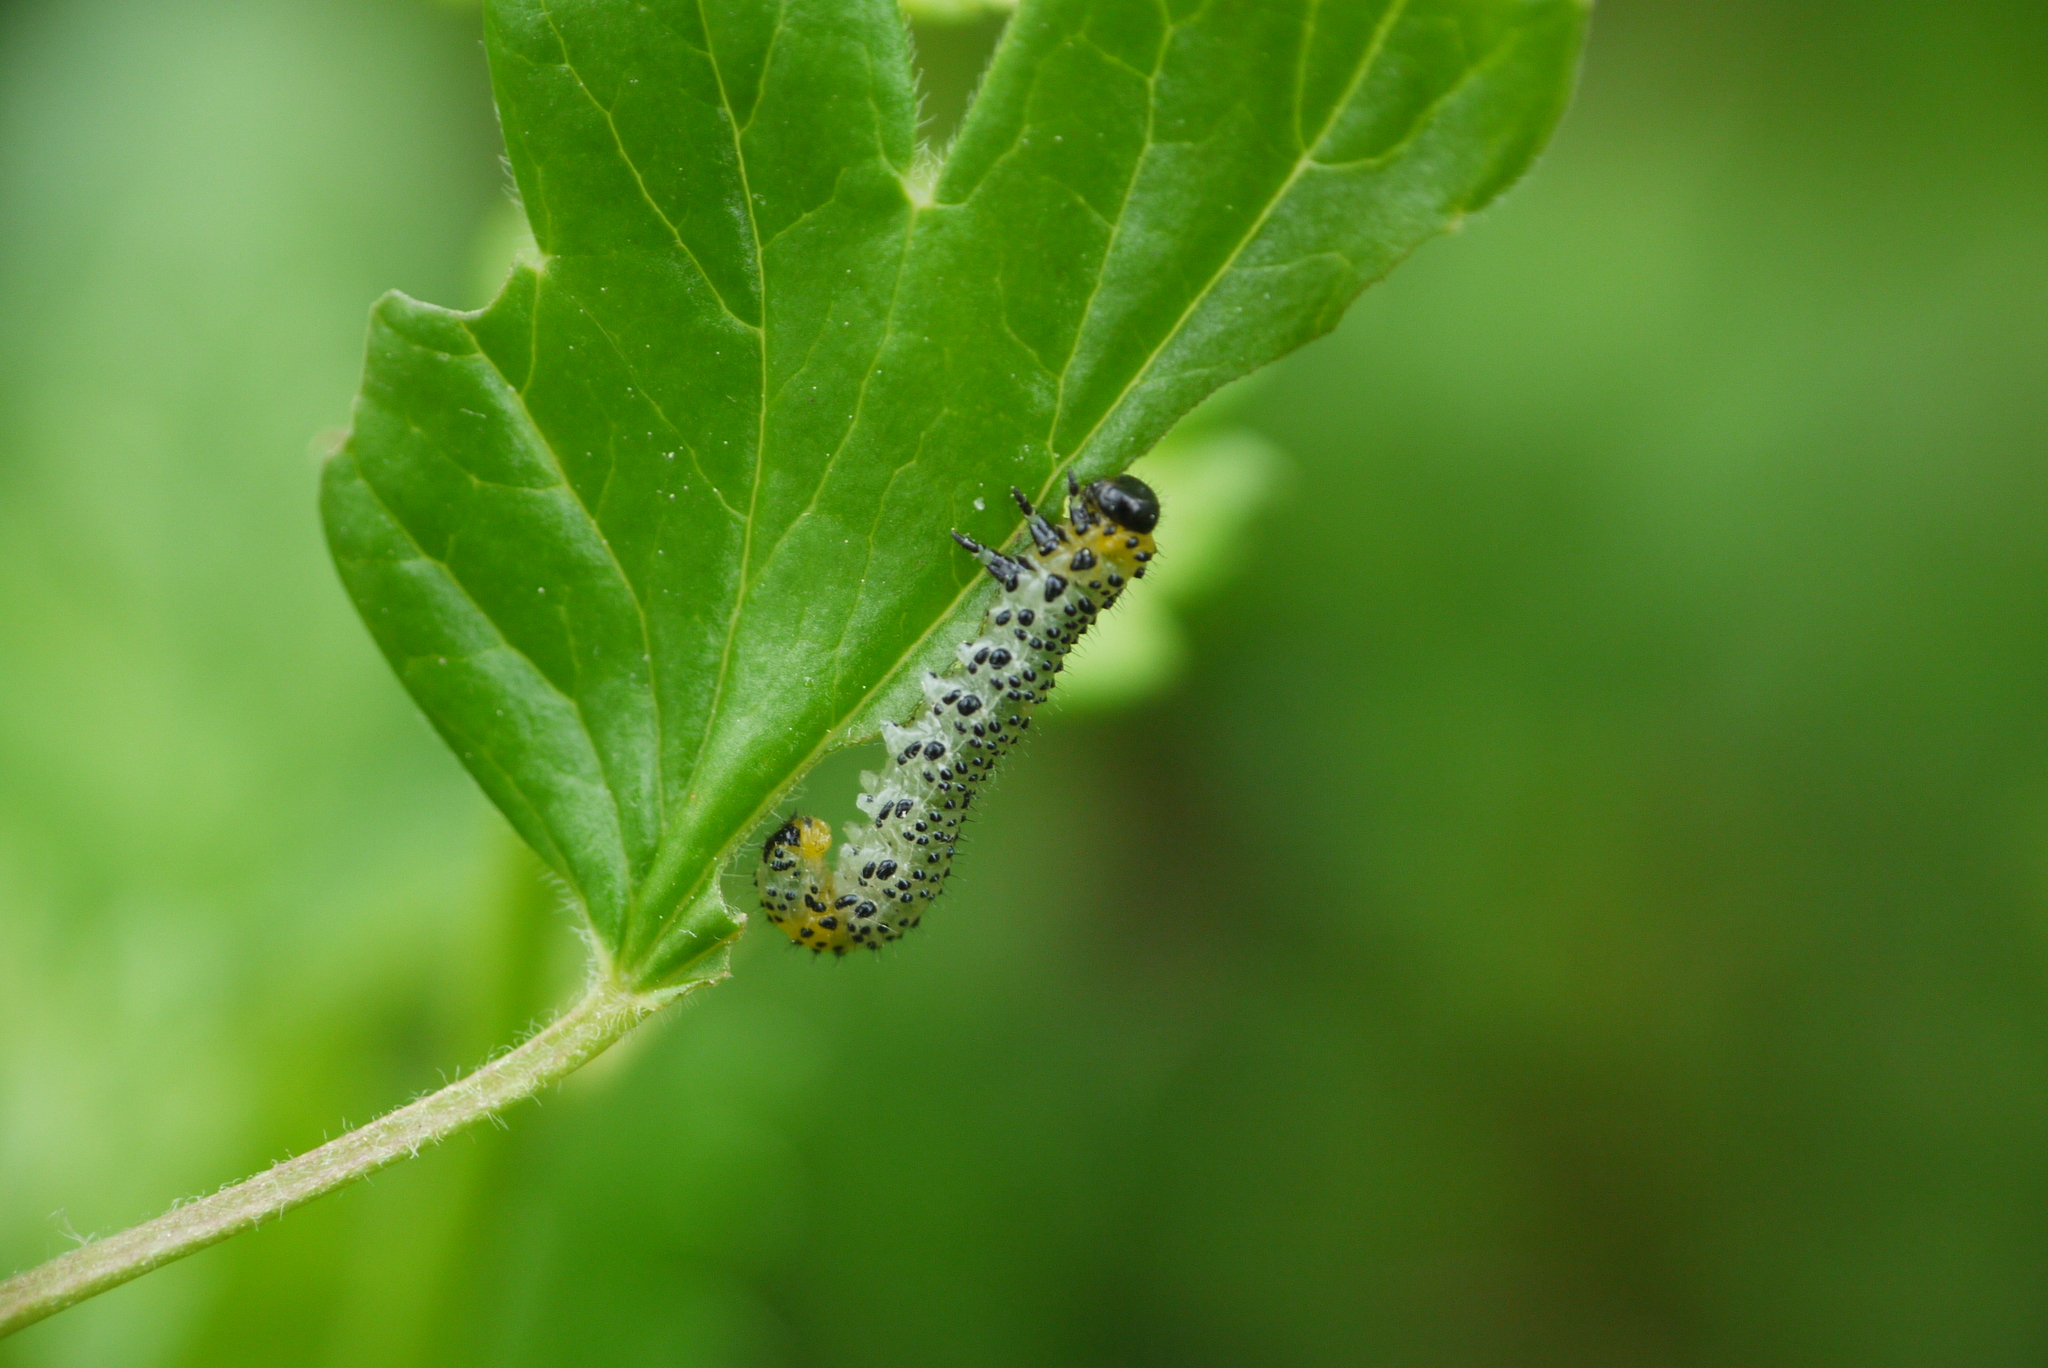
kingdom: Animalia
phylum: Arthropoda
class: Insecta
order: Hymenoptera
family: Tenthredinidae
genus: Nematus
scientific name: Nematus ribesii
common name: Imported currantworm
